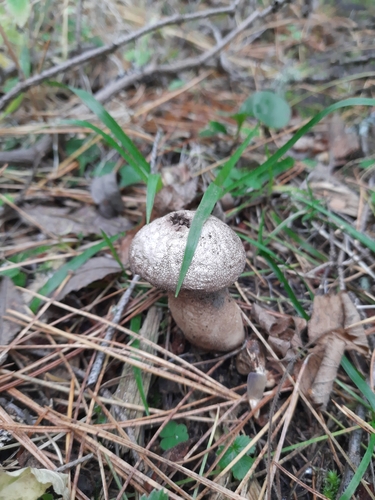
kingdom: Fungi
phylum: Basidiomycota
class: Agaricomycetes
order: Agaricales
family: Lycoperdaceae
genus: Lycoperdon
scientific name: Lycoperdon perlatum
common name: Common puffball
